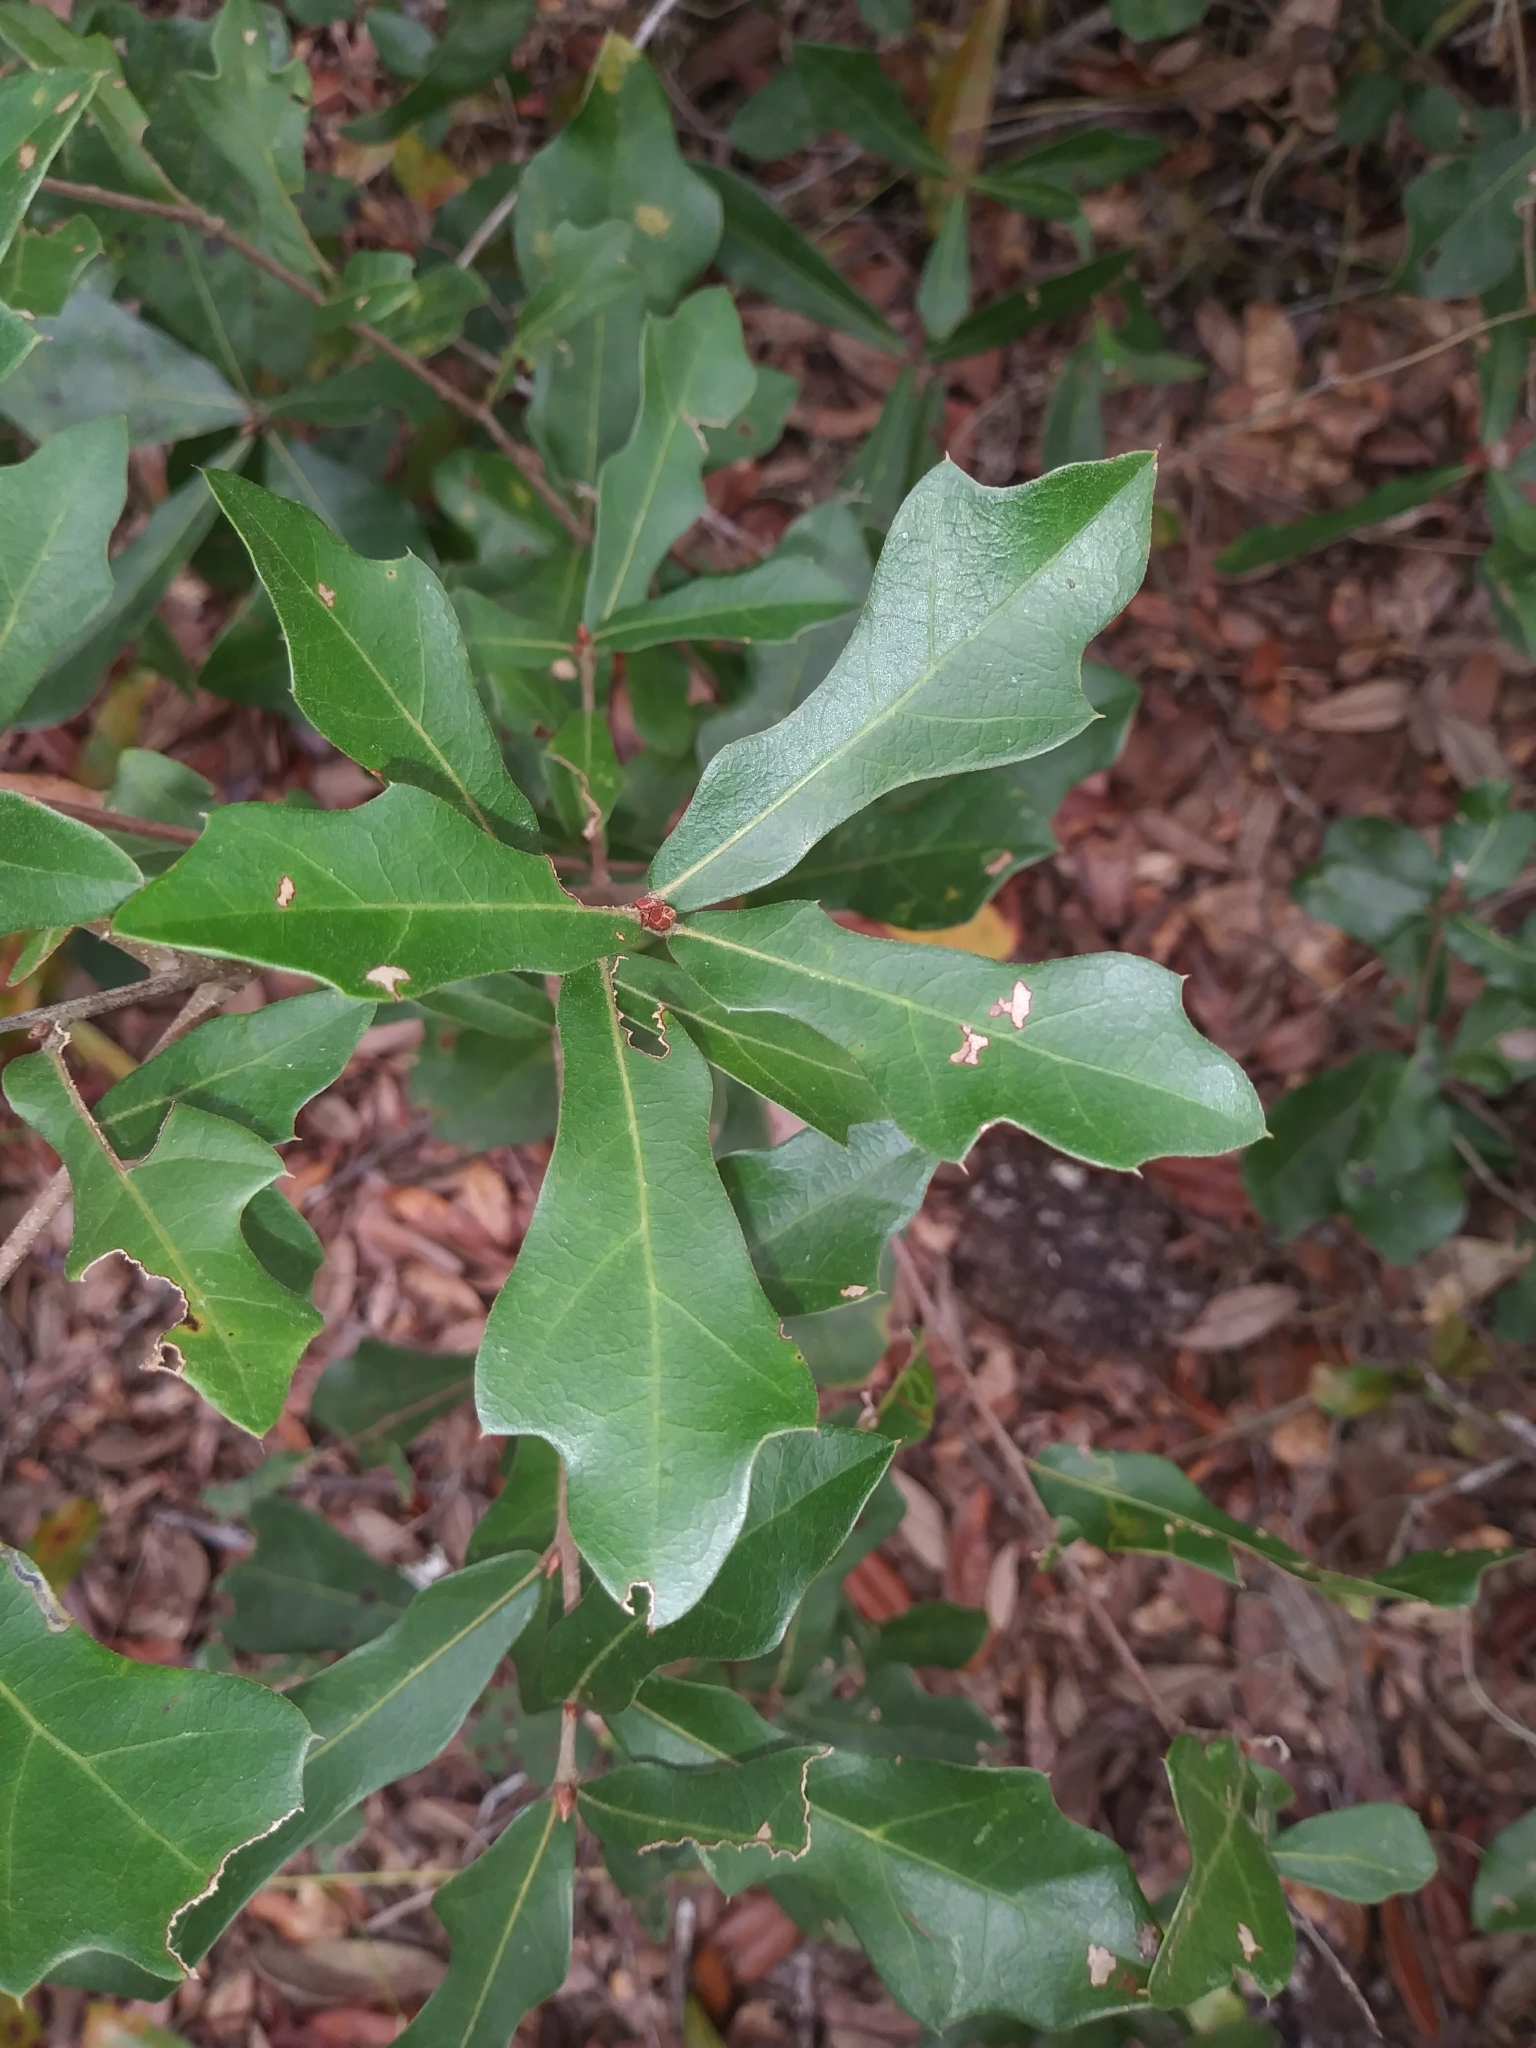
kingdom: Plantae
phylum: Tracheophyta
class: Magnoliopsida
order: Fagales
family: Fagaceae
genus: Quercus
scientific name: Quercus nigra
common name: Water oak
